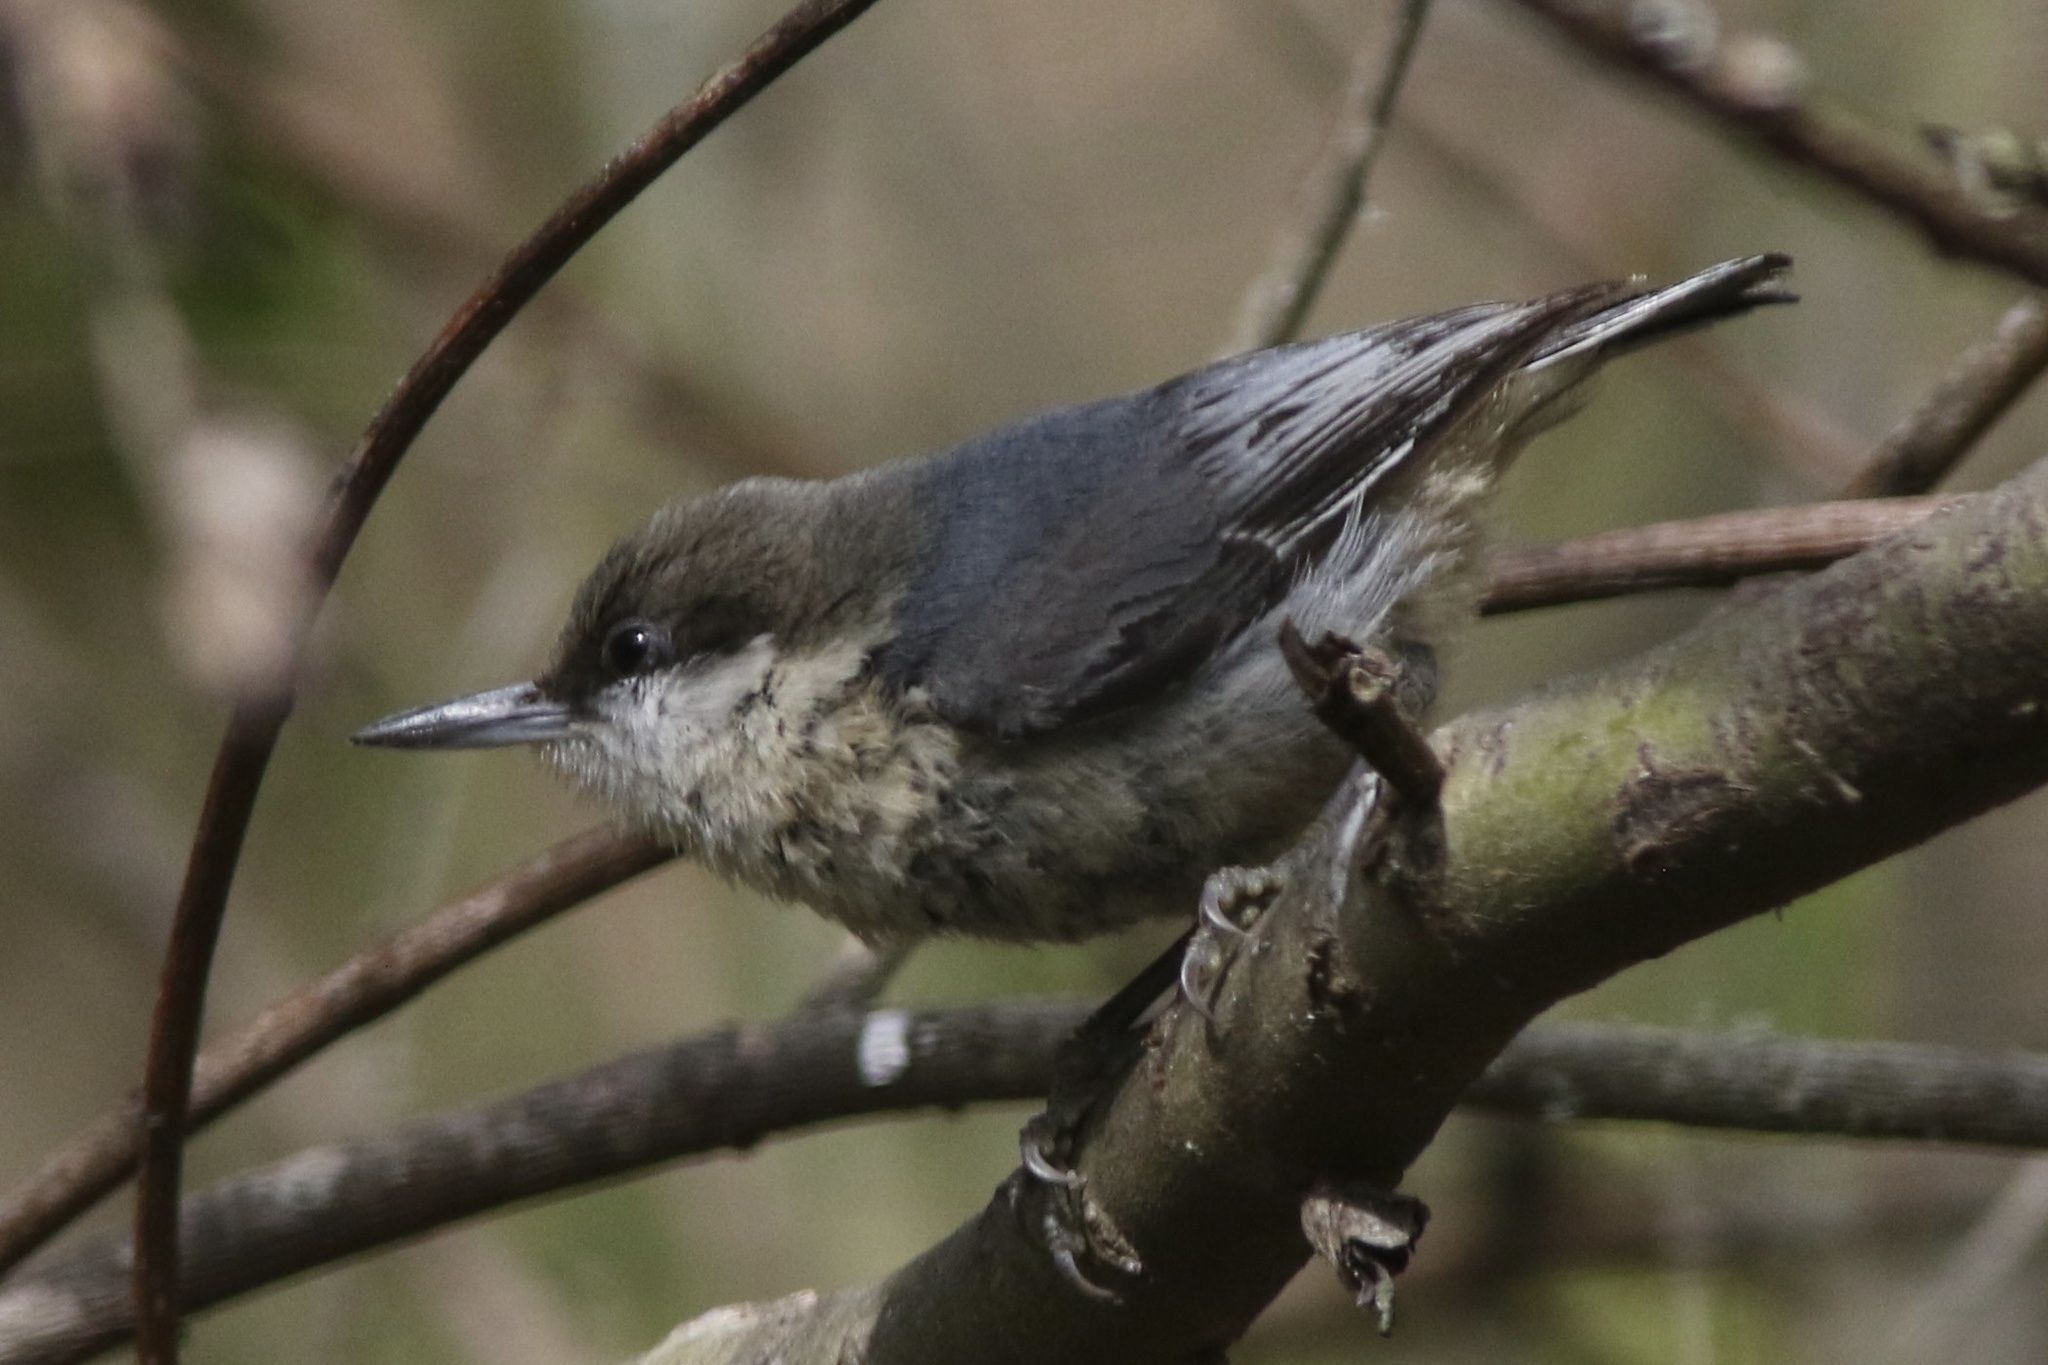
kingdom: Animalia
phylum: Chordata
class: Aves
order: Passeriformes
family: Sittidae
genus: Sitta
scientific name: Sitta pygmaea
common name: Pygmy nuthatch
